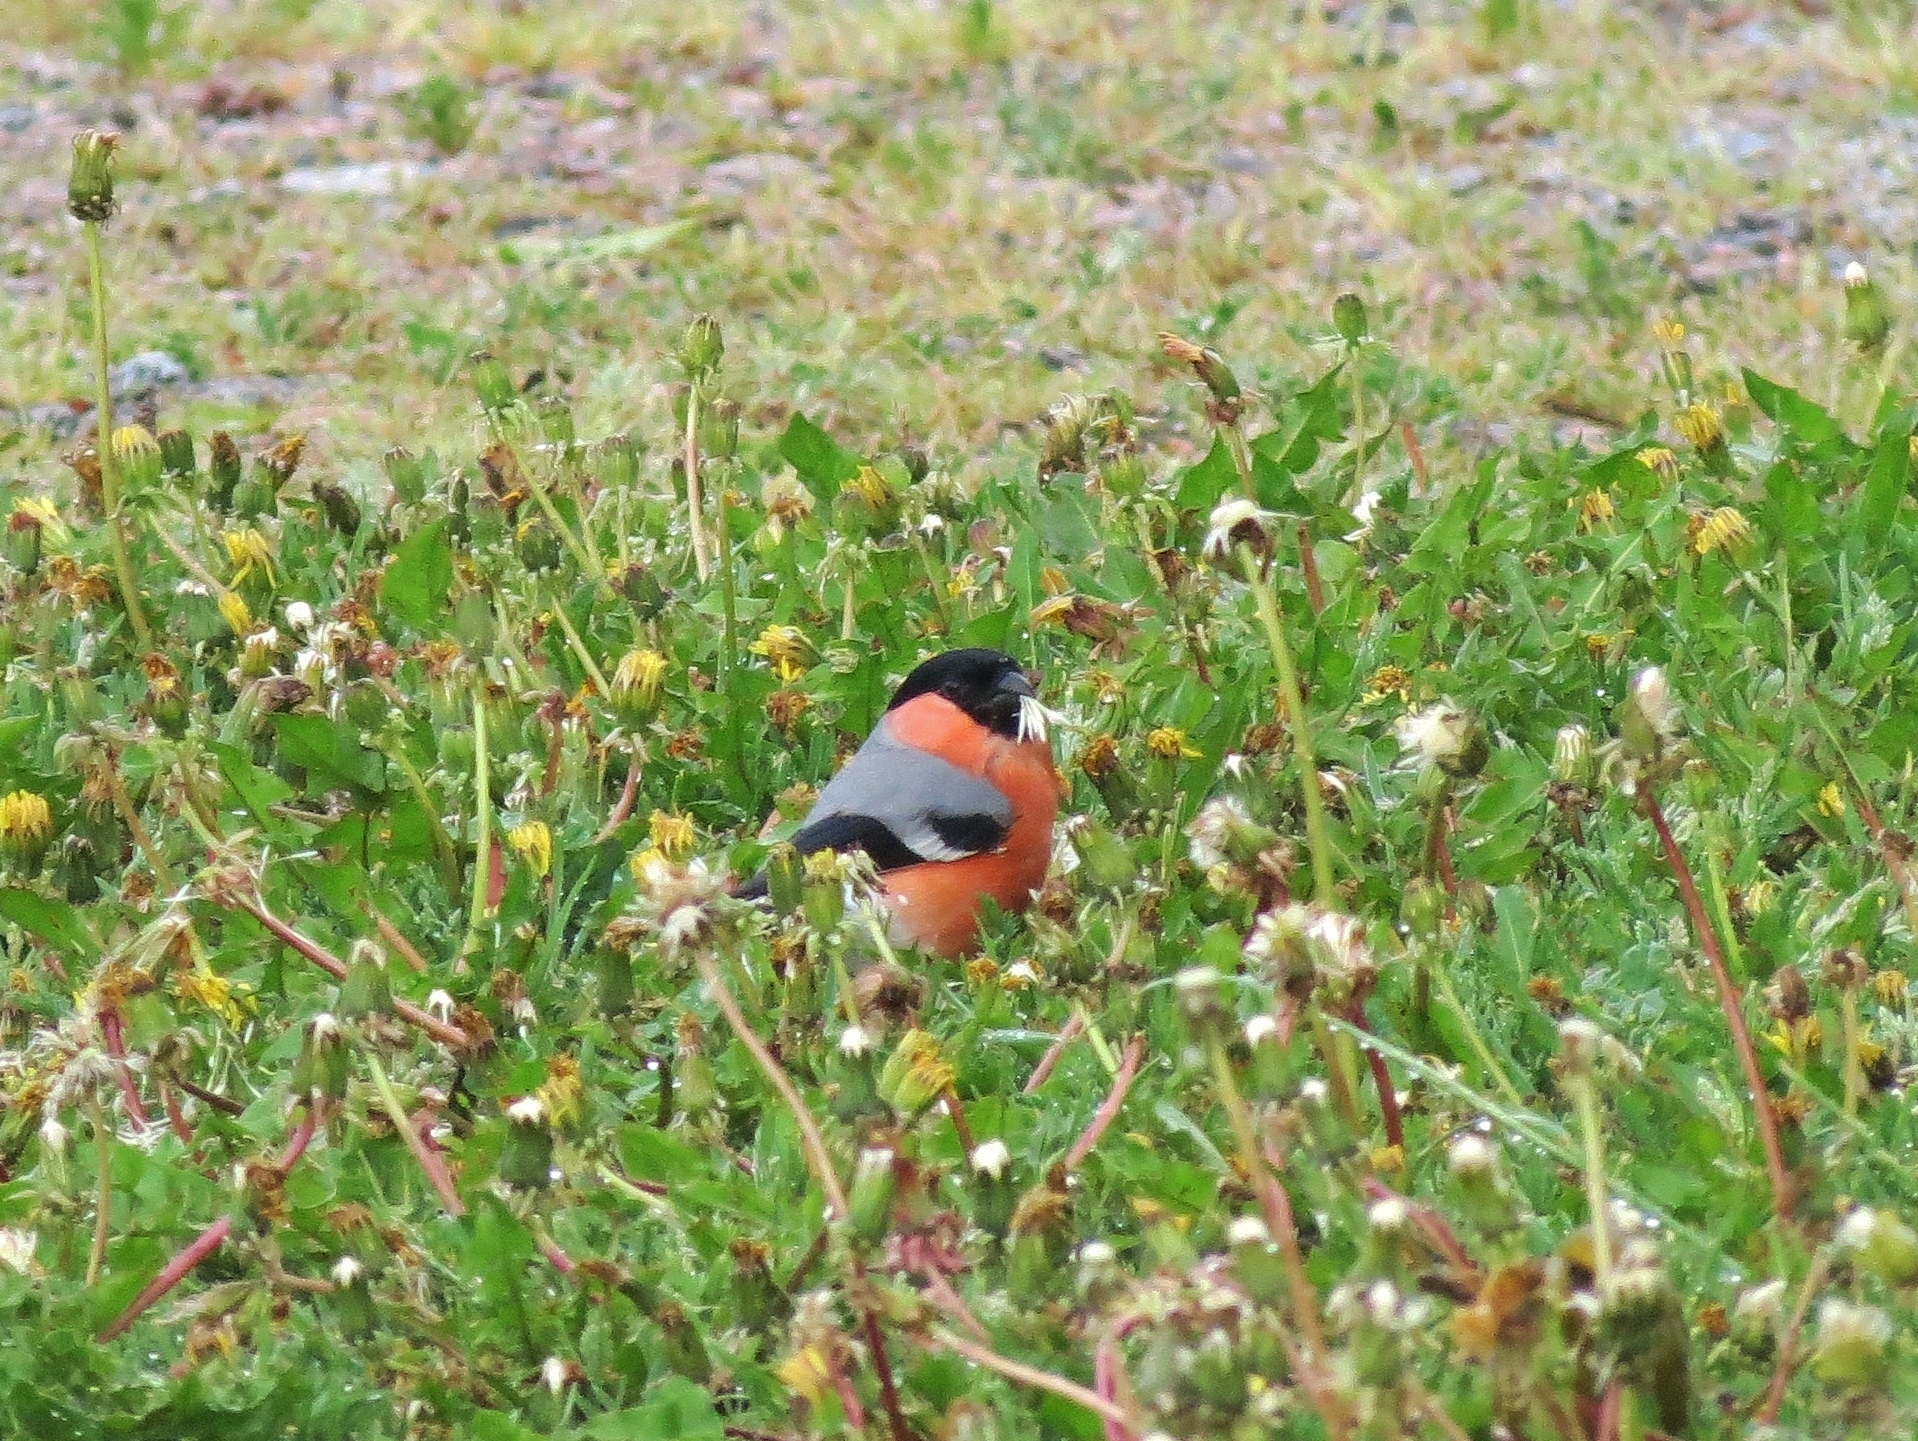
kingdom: Animalia
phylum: Chordata
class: Aves
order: Passeriformes
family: Fringillidae
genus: Pyrrhula
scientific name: Pyrrhula pyrrhula
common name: Eurasian bullfinch
